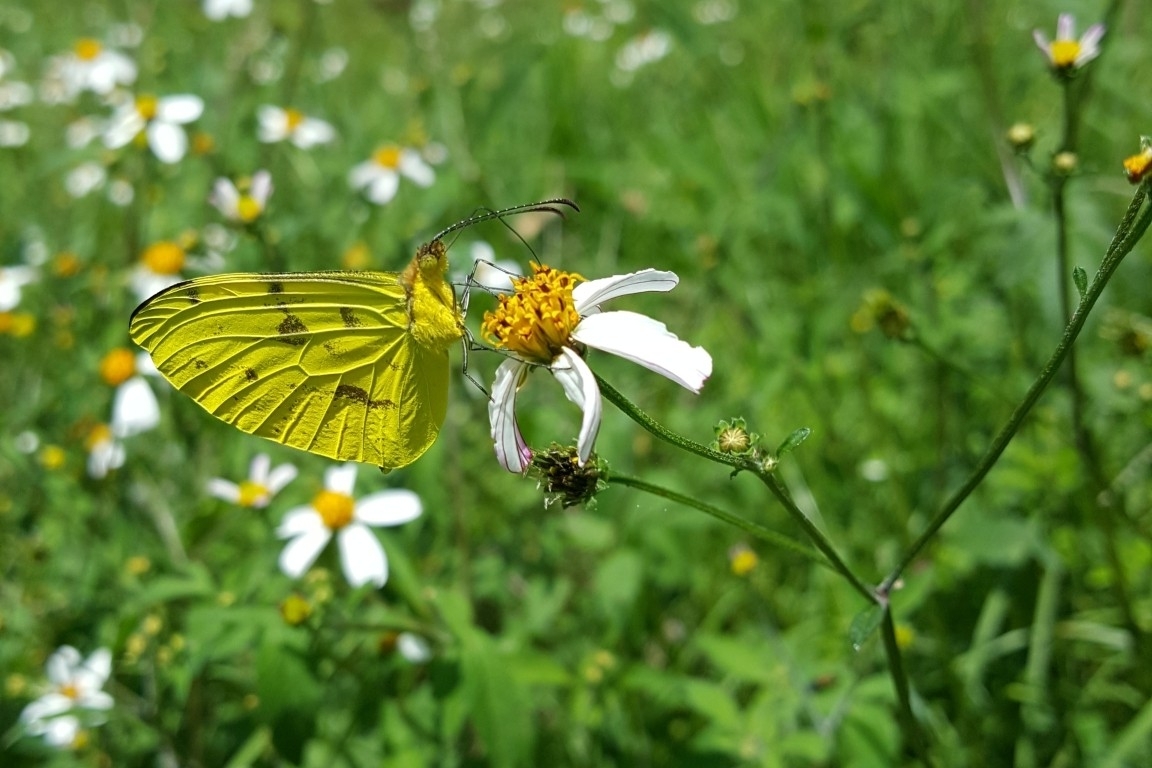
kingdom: Animalia
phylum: Arthropoda
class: Insecta
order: Lepidoptera
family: Pieridae
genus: Enantia
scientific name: Enantia jethys
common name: Jethys mimic-white
